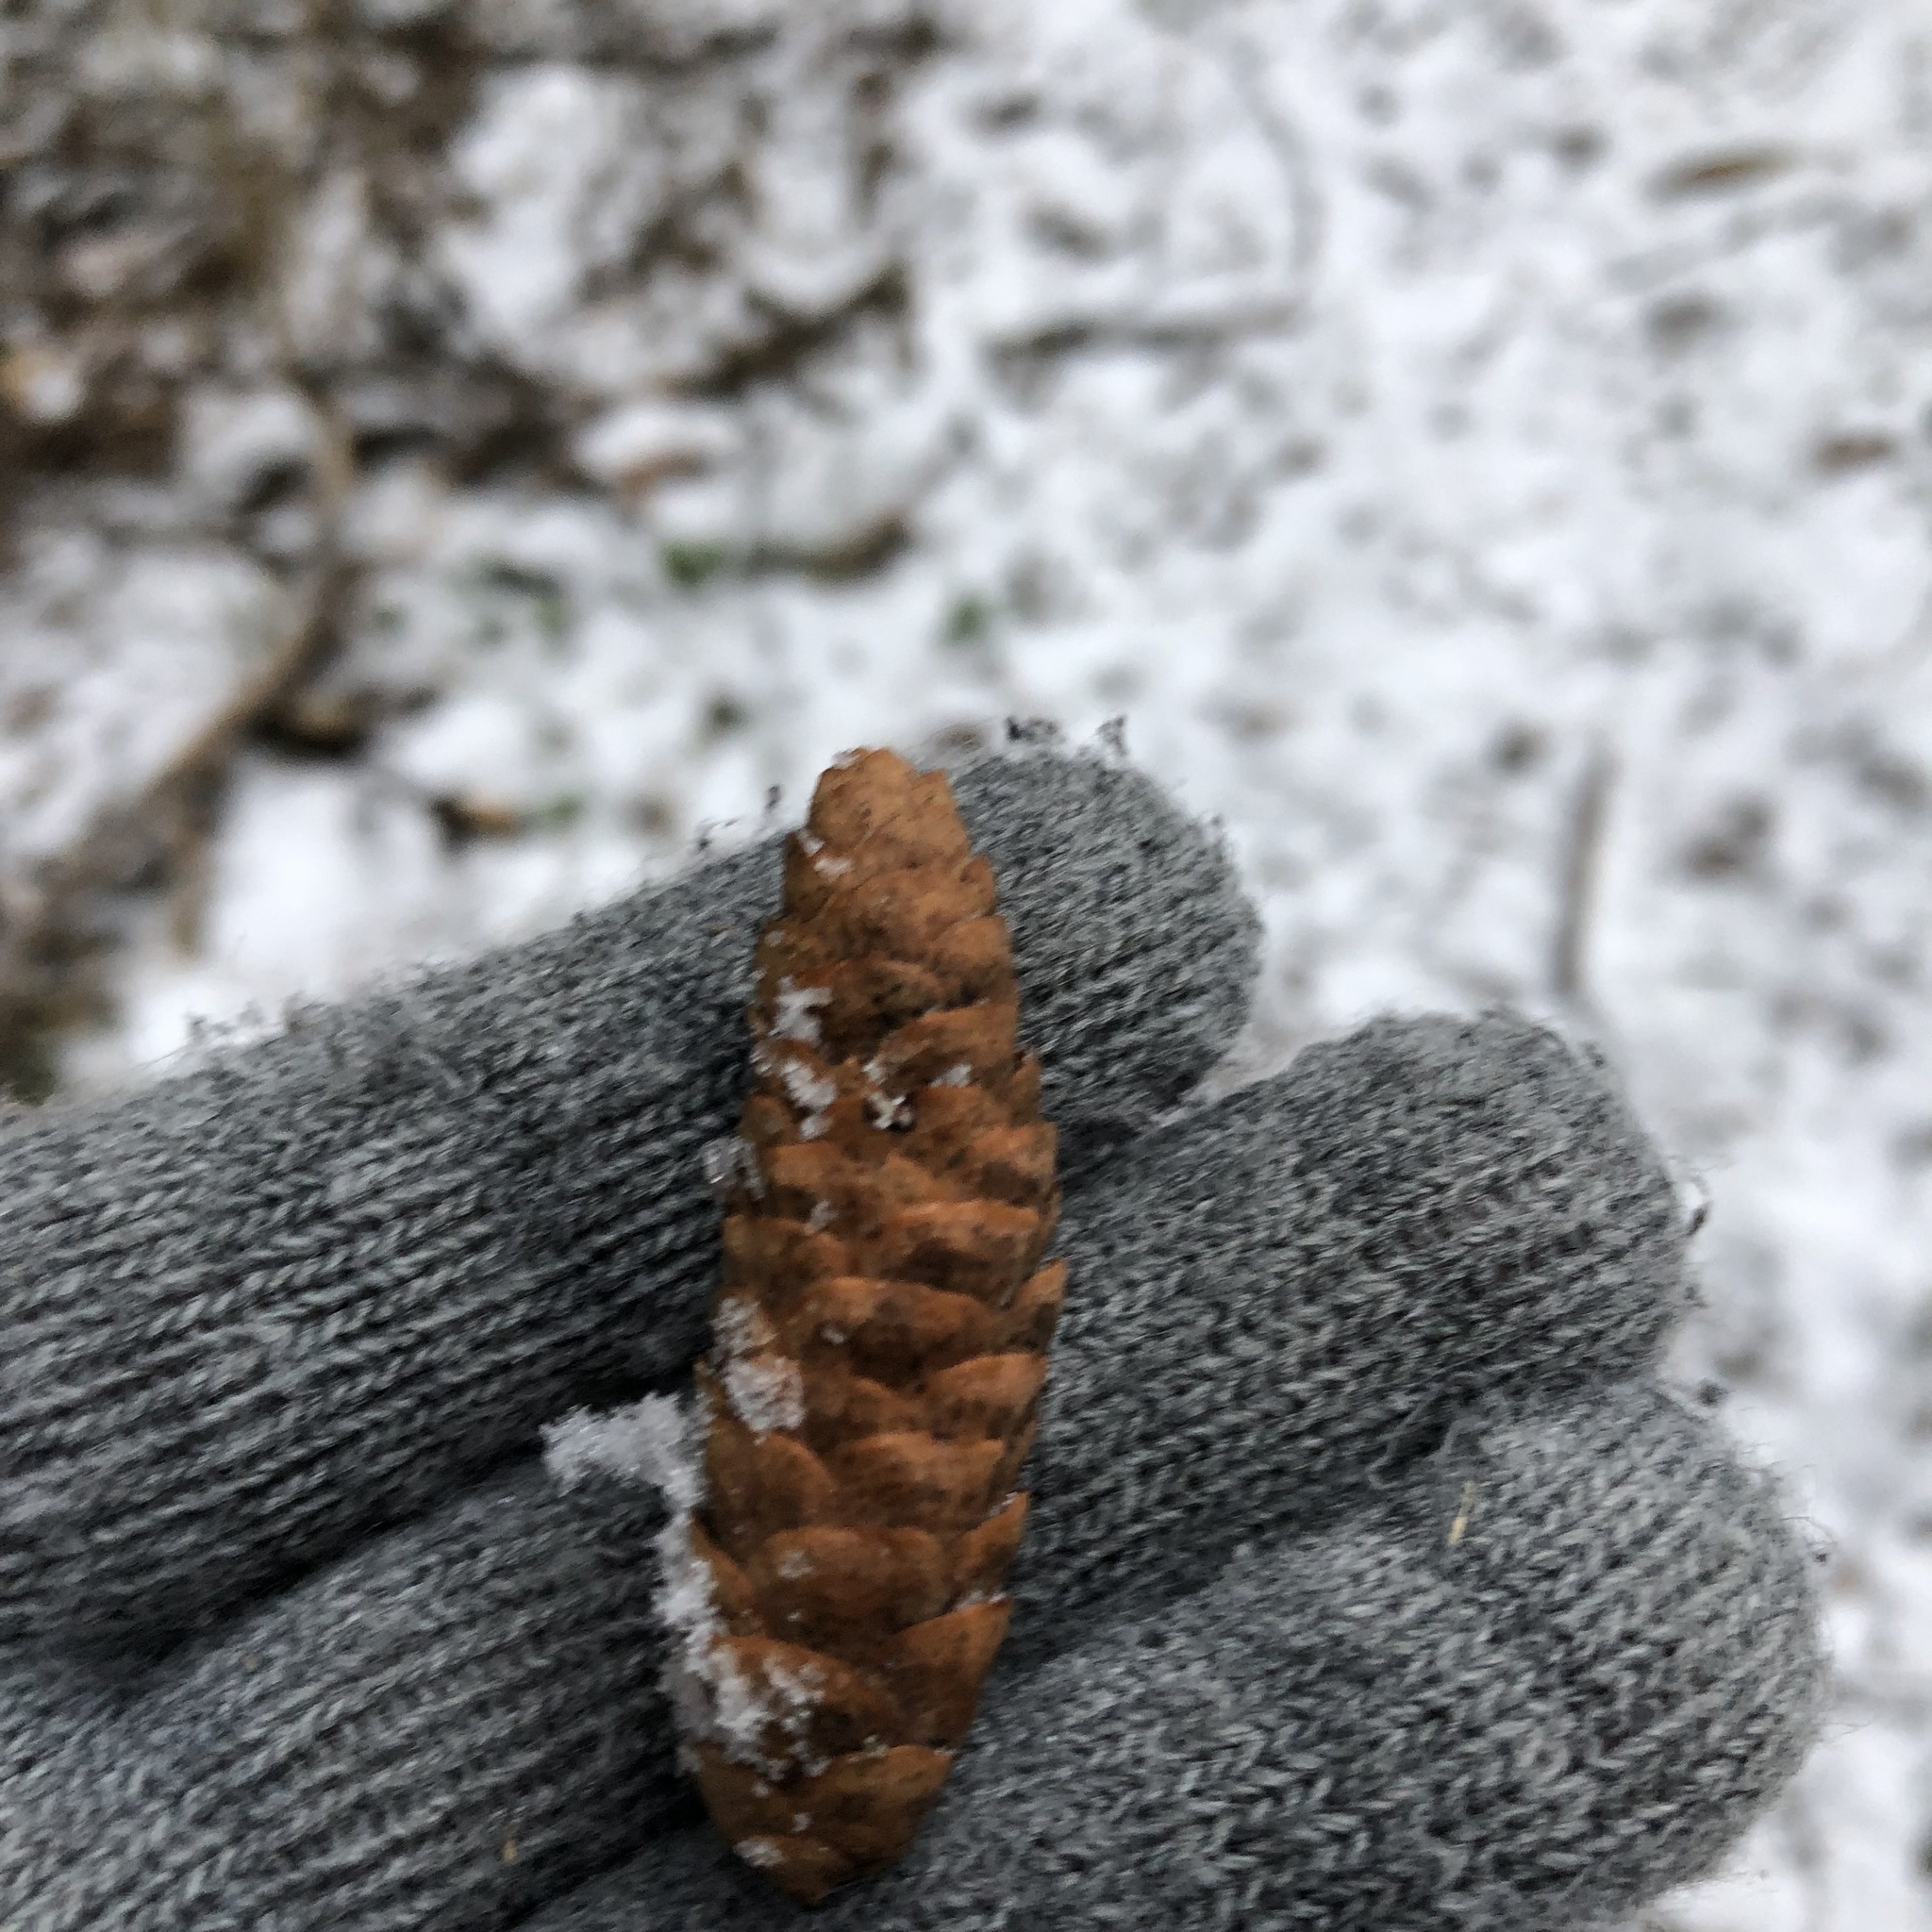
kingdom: Plantae
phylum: Tracheophyta
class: Pinopsida
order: Pinales
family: Pinaceae
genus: Picea
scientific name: Picea glauca
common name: White spruce
